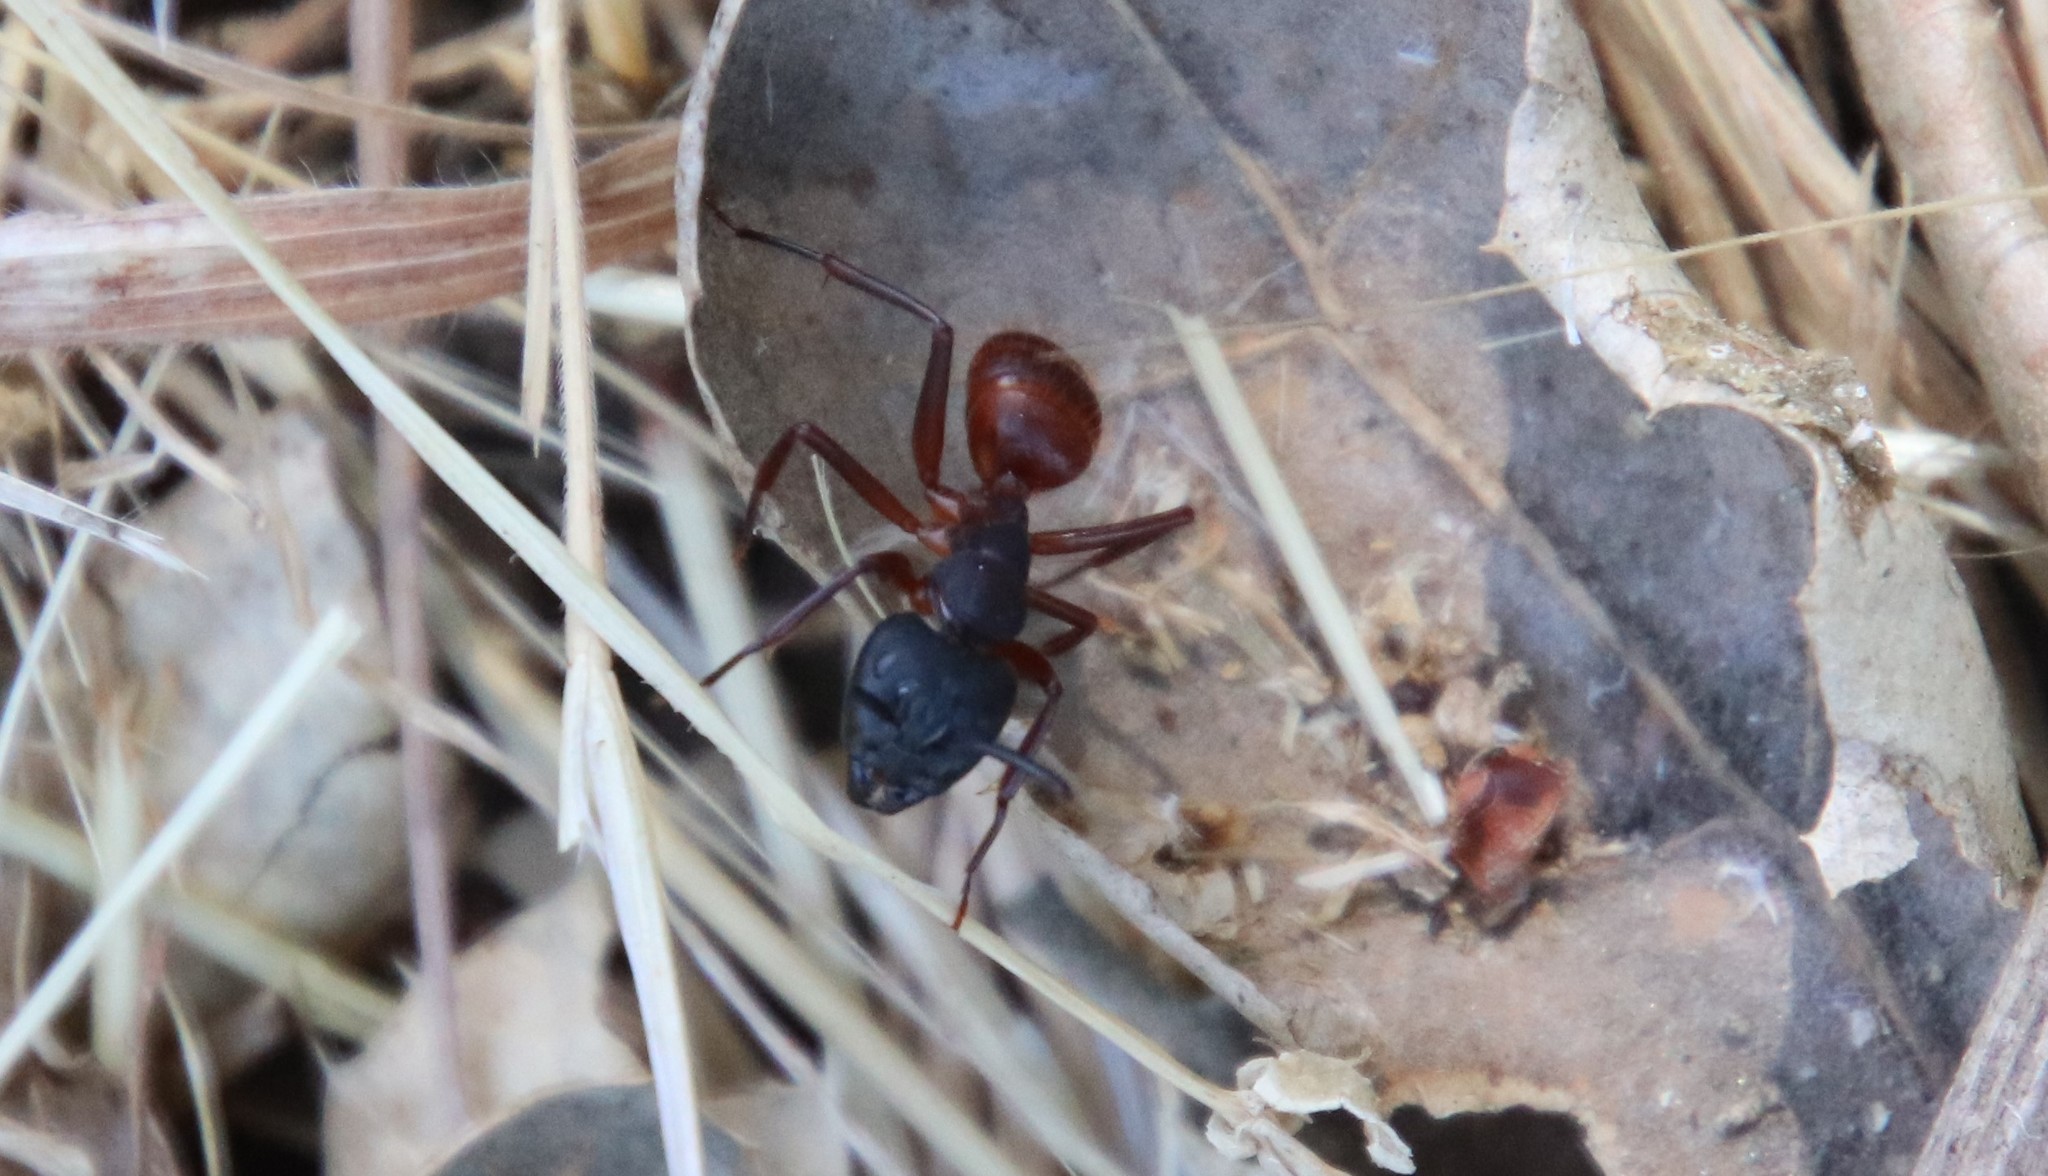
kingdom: Animalia
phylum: Arthropoda
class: Insecta
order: Hymenoptera
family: Formicidae
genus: Camponotus
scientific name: Camponotus
